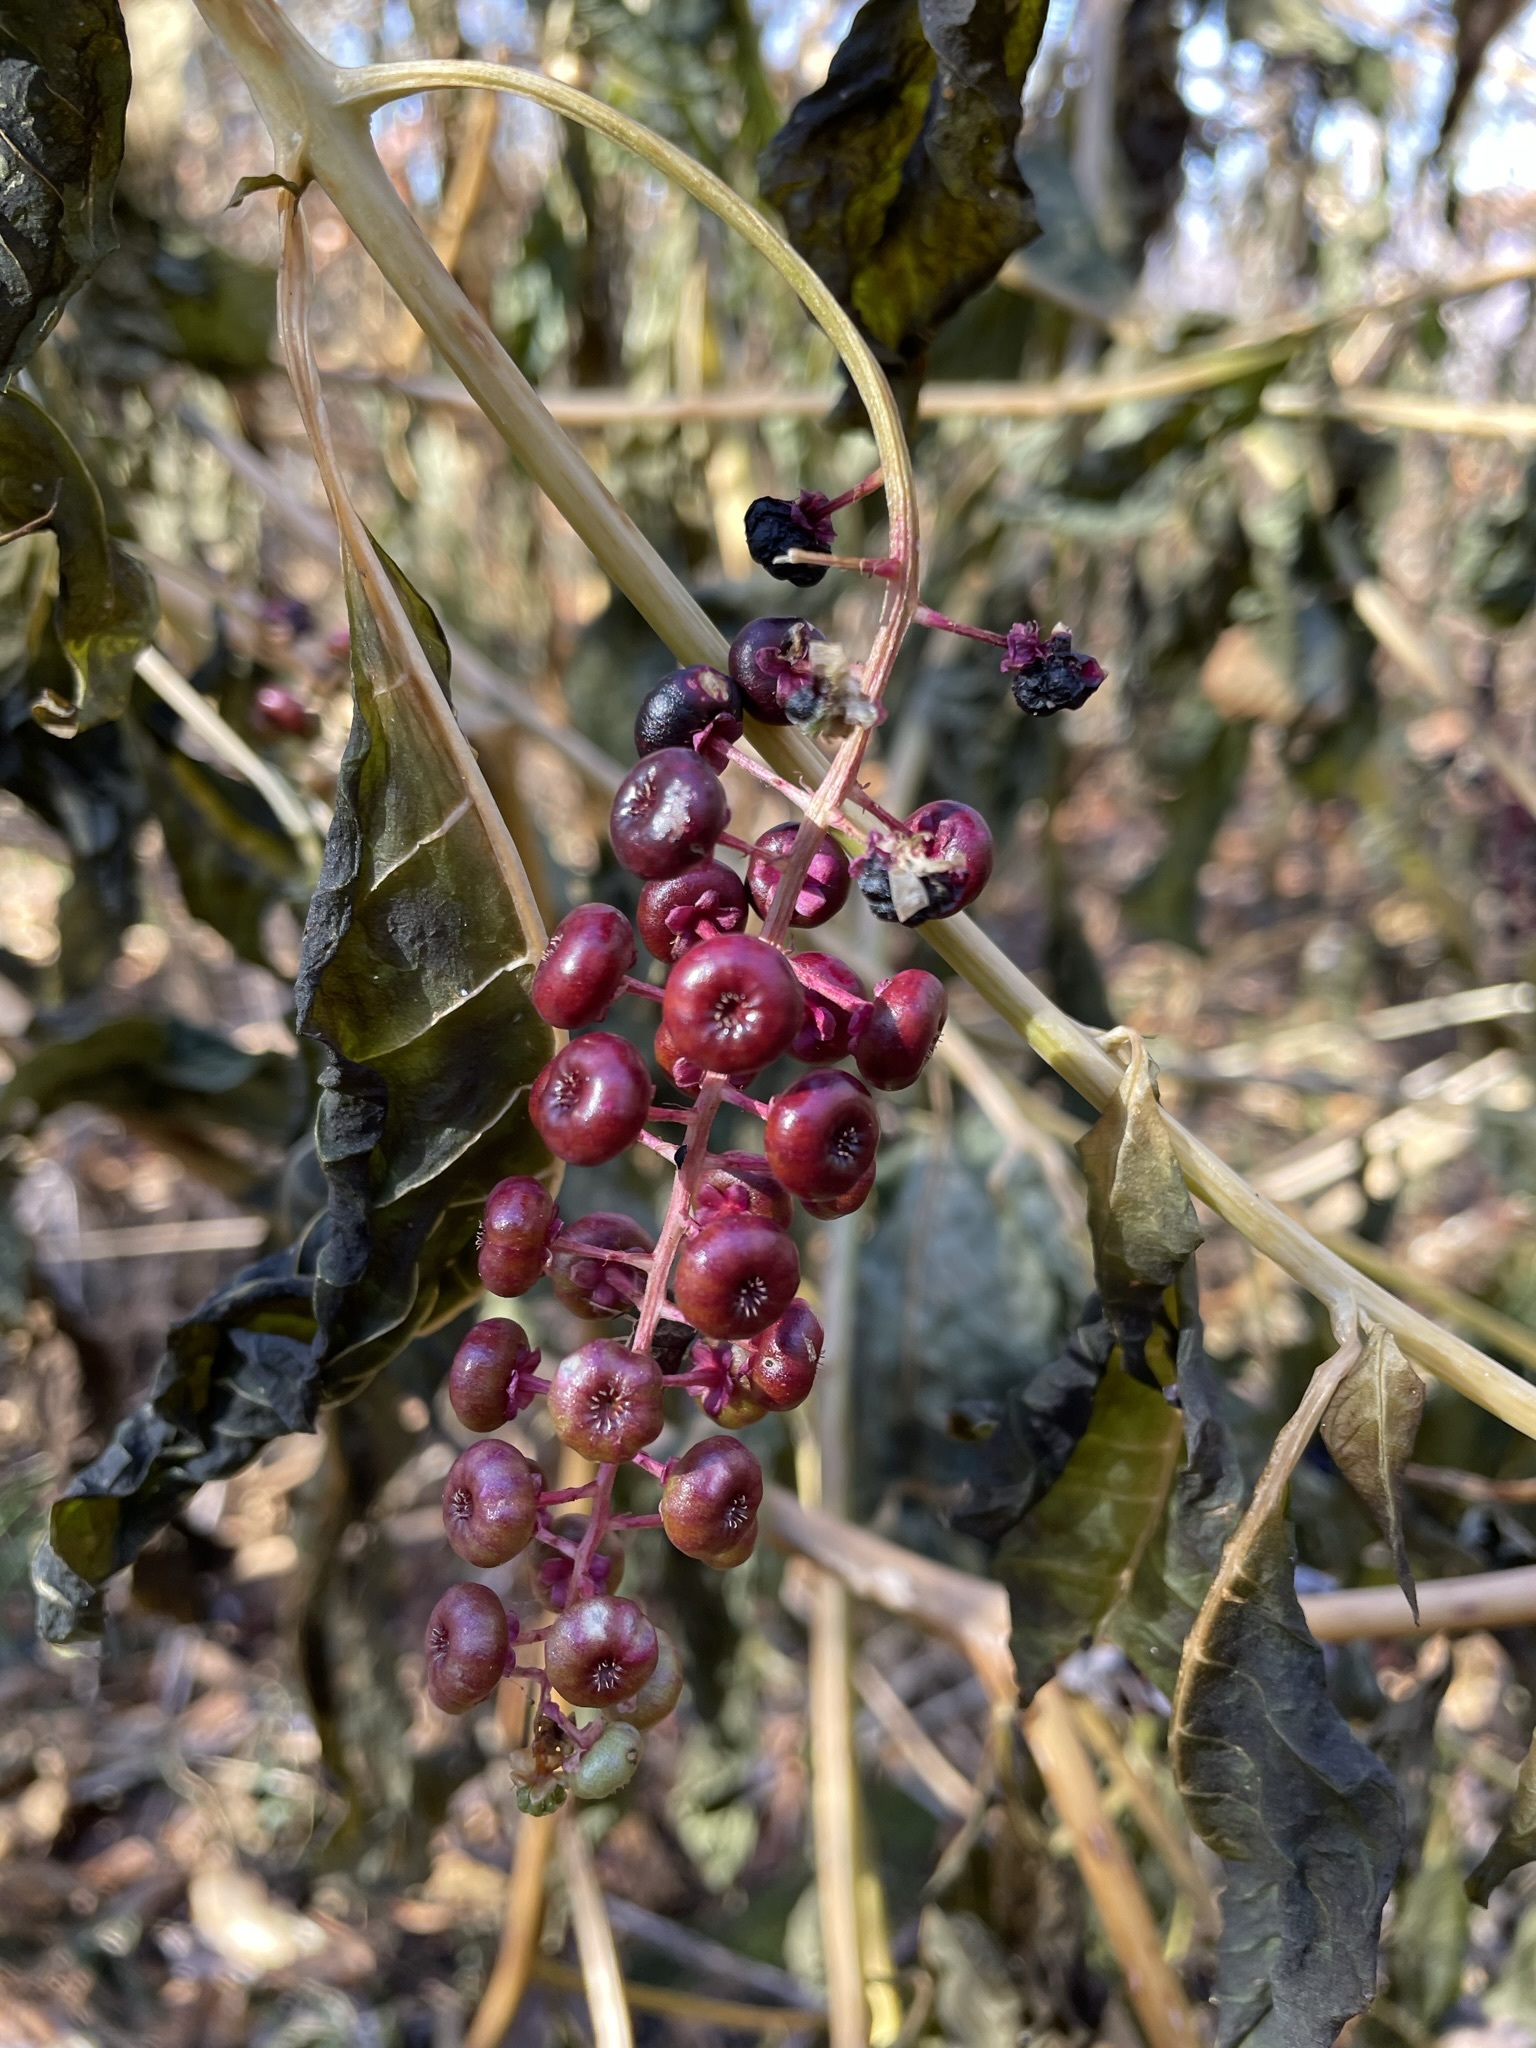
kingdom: Plantae
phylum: Tracheophyta
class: Magnoliopsida
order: Caryophyllales
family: Phytolaccaceae
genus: Phytolacca
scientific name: Phytolacca americana
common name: American pokeweed
